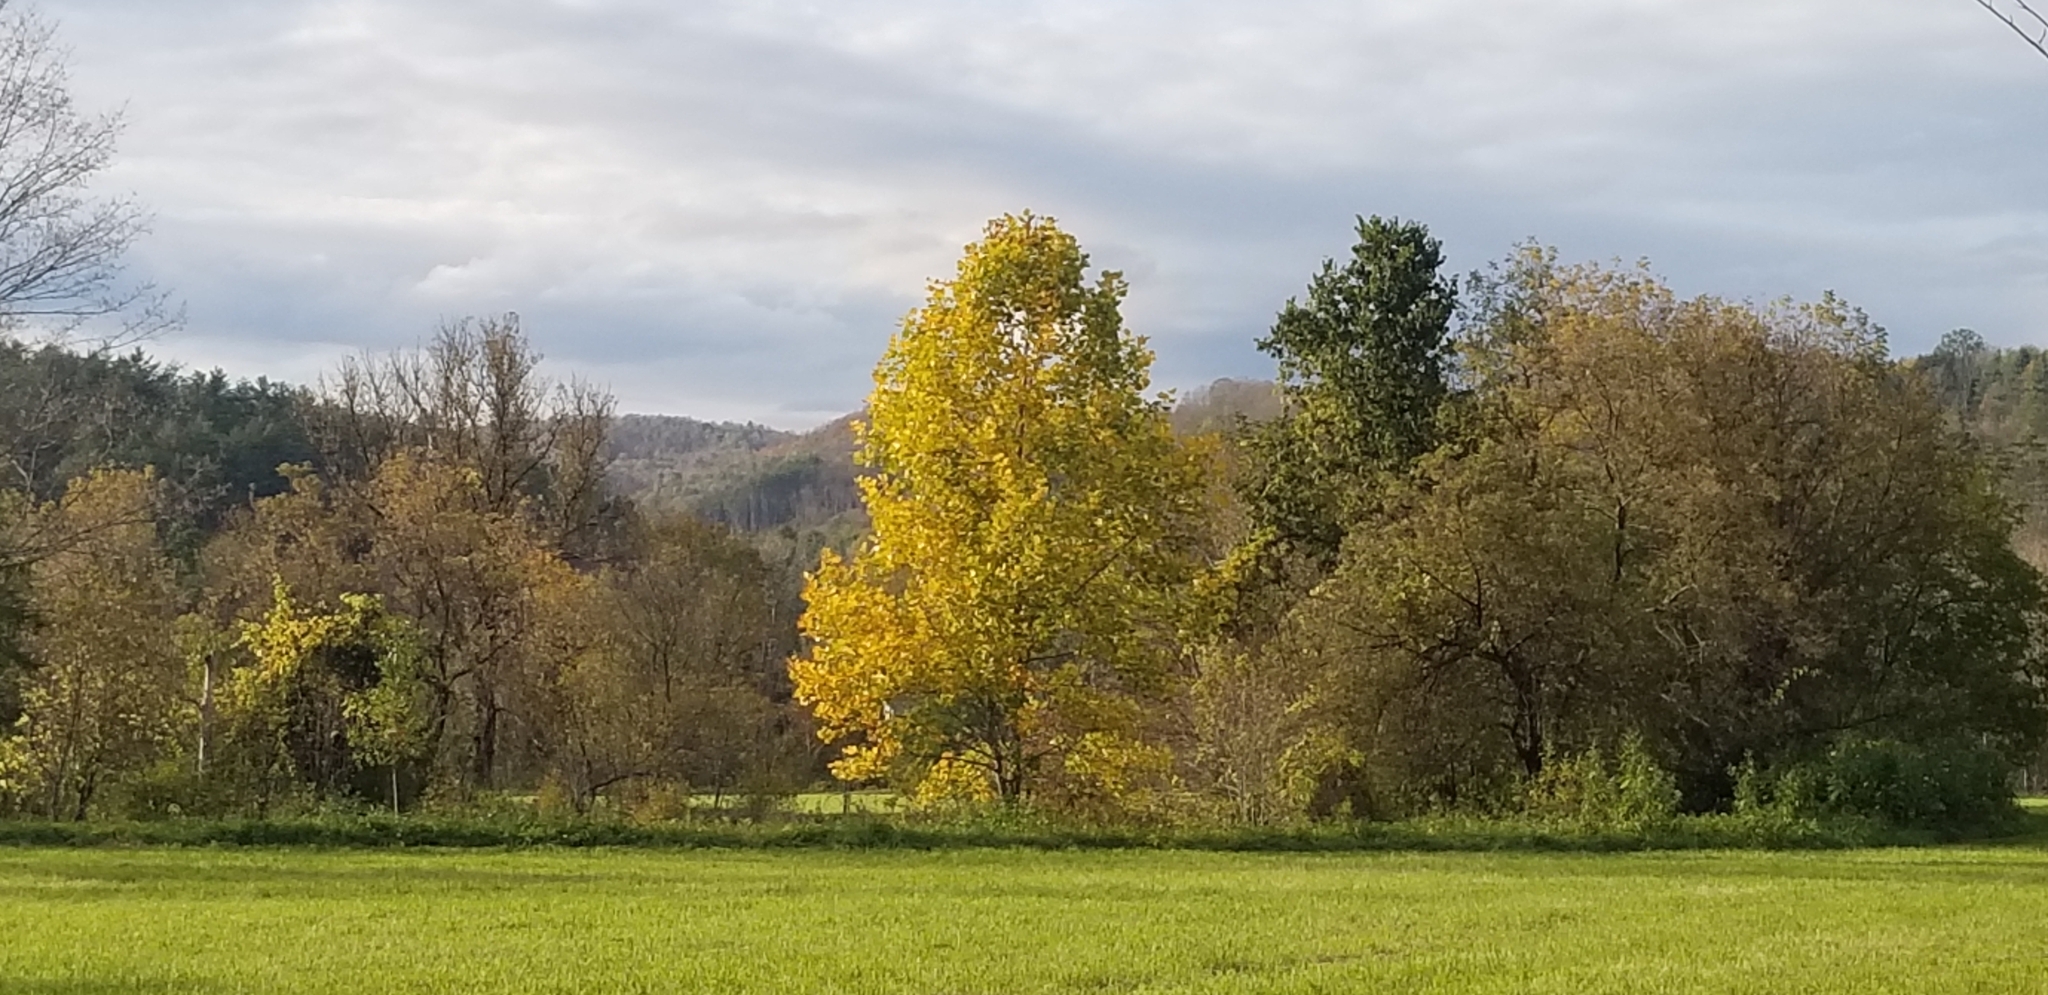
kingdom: Plantae
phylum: Tracheophyta
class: Magnoliopsida
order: Magnoliales
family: Magnoliaceae
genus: Liriodendron
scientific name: Liriodendron tulipifera
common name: Tulip tree
